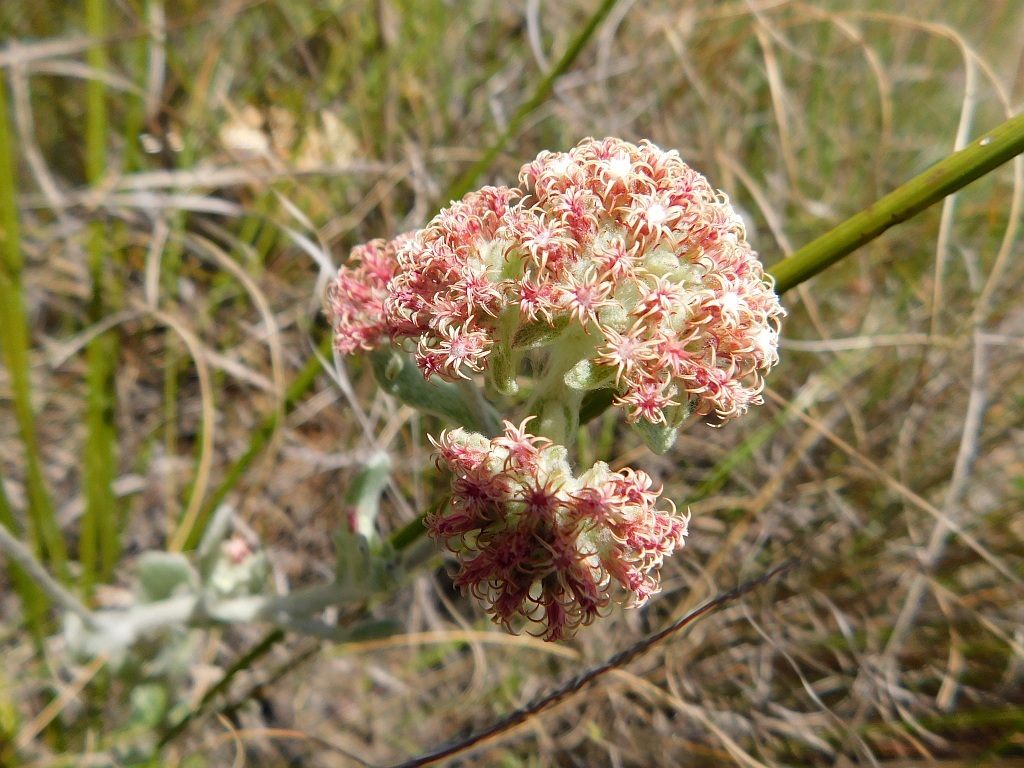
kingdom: Plantae
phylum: Tracheophyta
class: Magnoliopsida
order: Asterales
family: Asteraceae
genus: Helichrysum
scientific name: Helichrysum spiralepis
